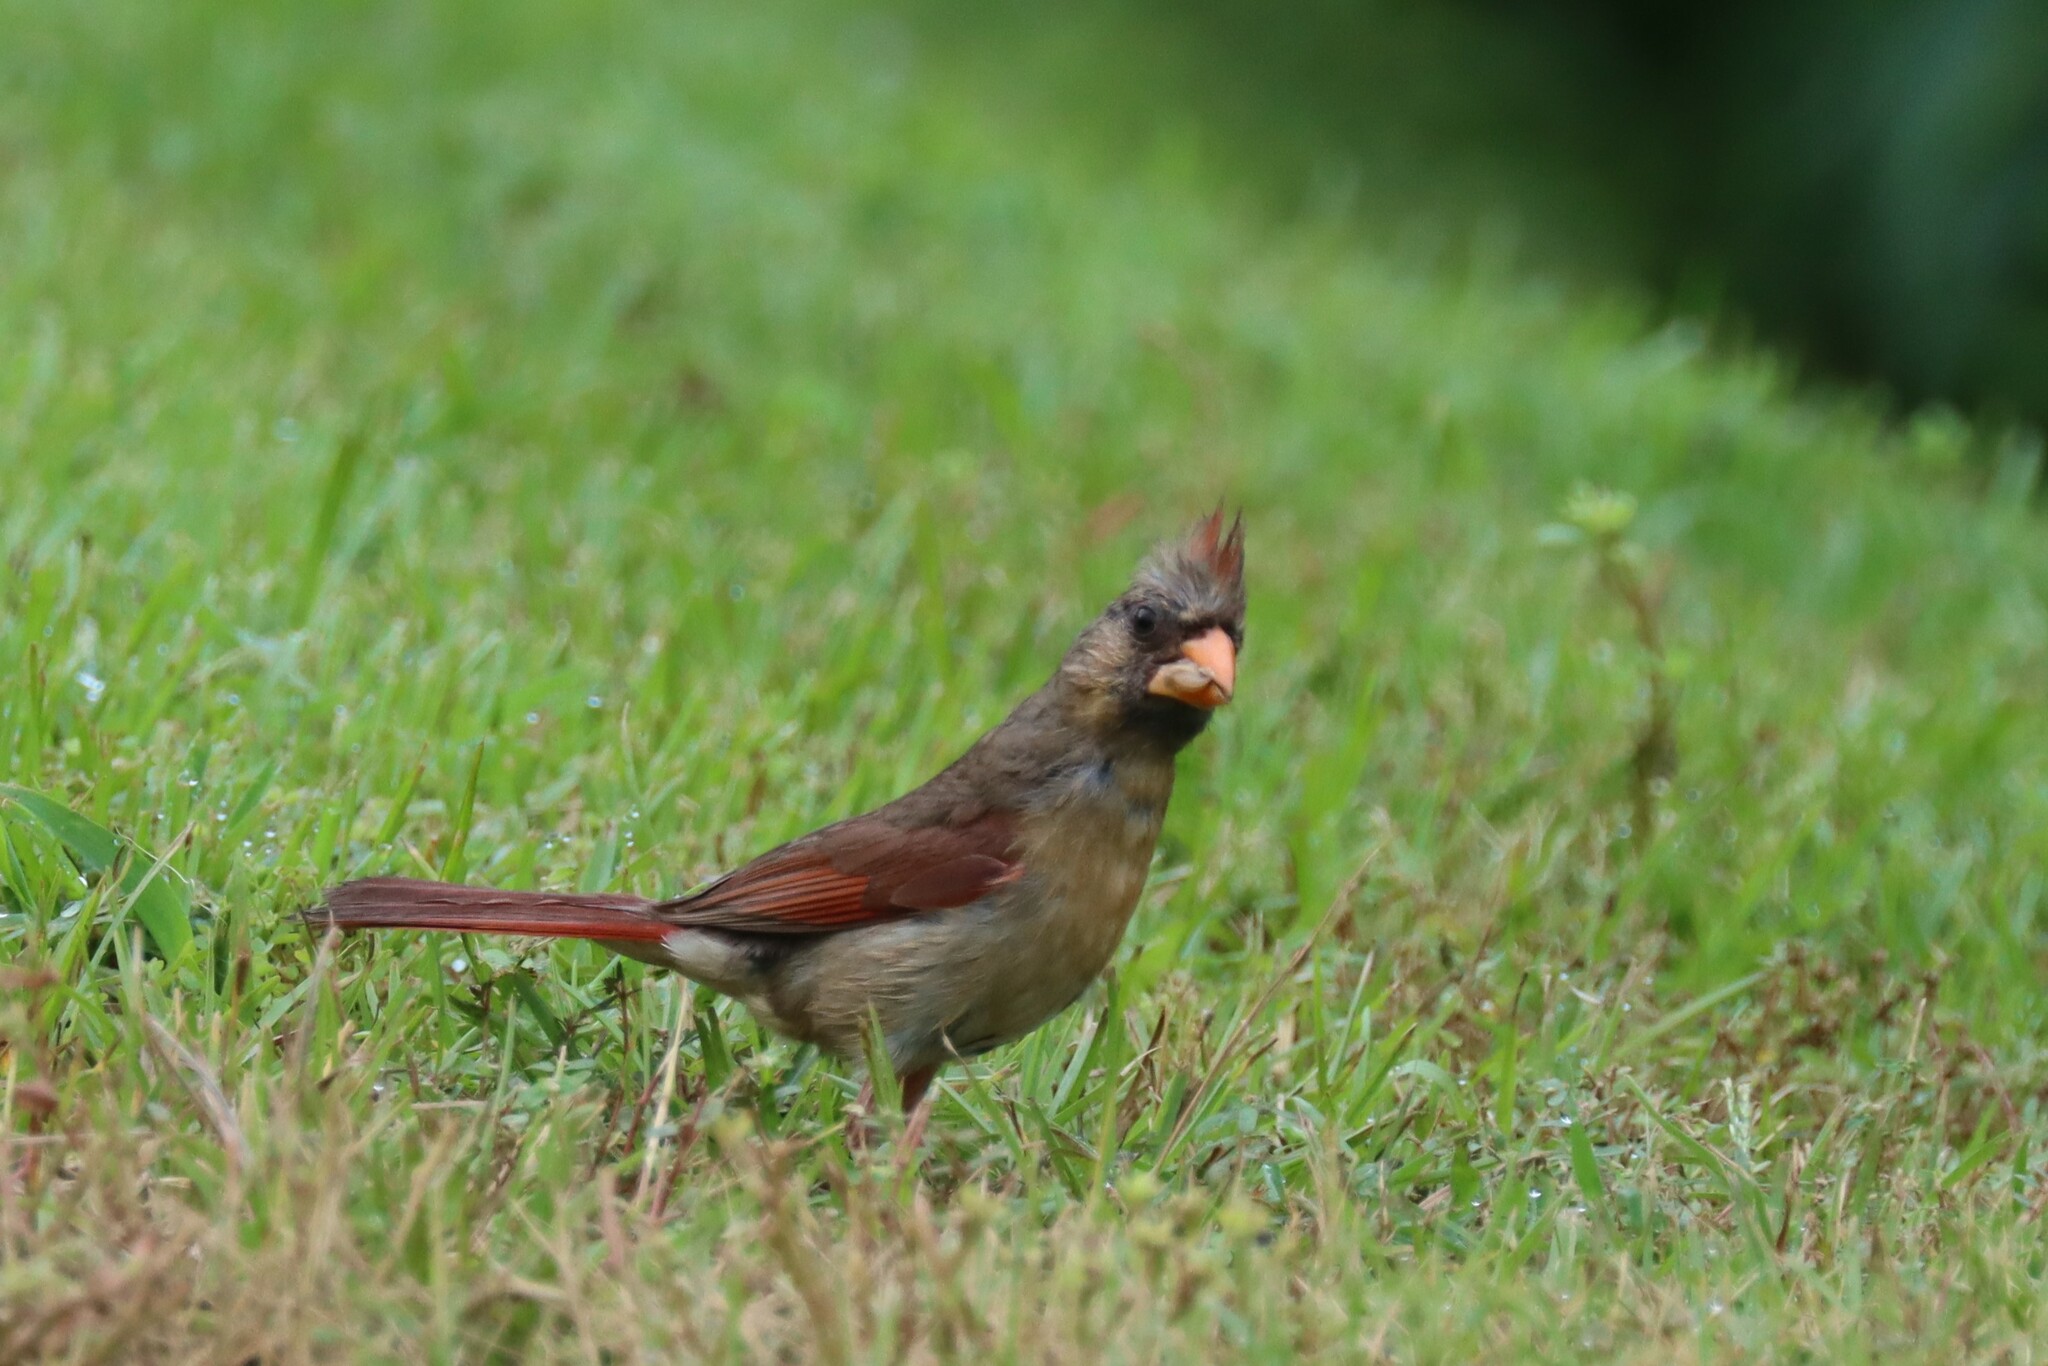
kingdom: Animalia
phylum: Chordata
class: Aves
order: Passeriformes
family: Cardinalidae
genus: Cardinalis
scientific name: Cardinalis cardinalis
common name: Northern cardinal
